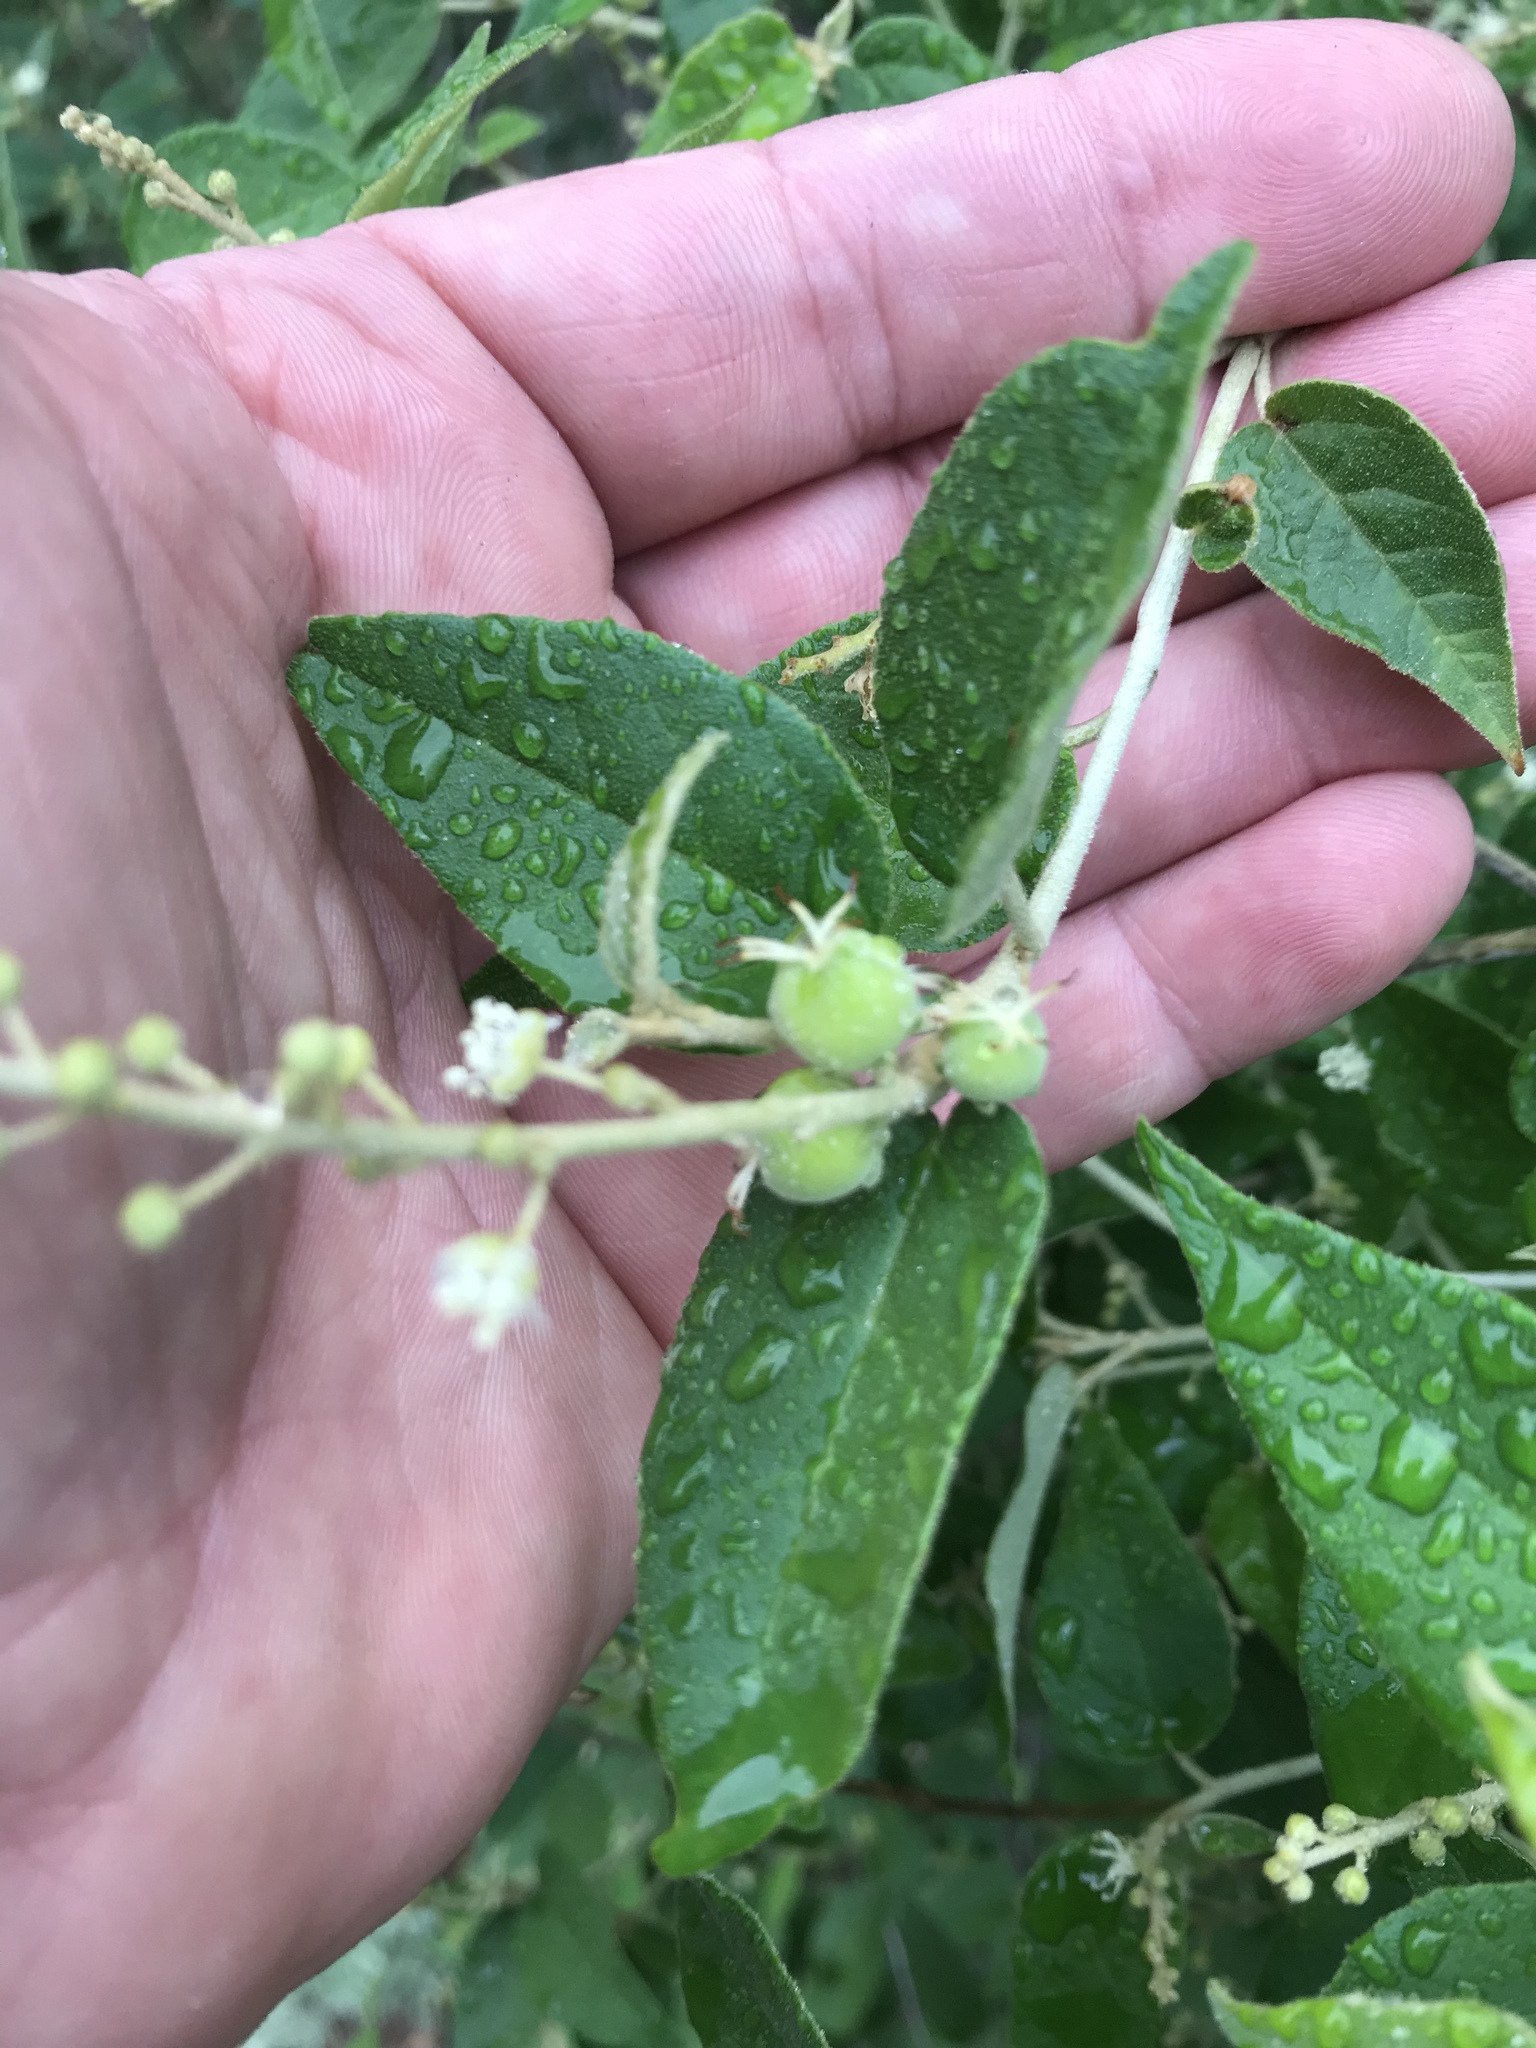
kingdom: Plantae
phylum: Tracheophyta
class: Magnoliopsida
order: Malpighiales
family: Euphorbiaceae
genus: Croton
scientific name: Croton fruticulosus
